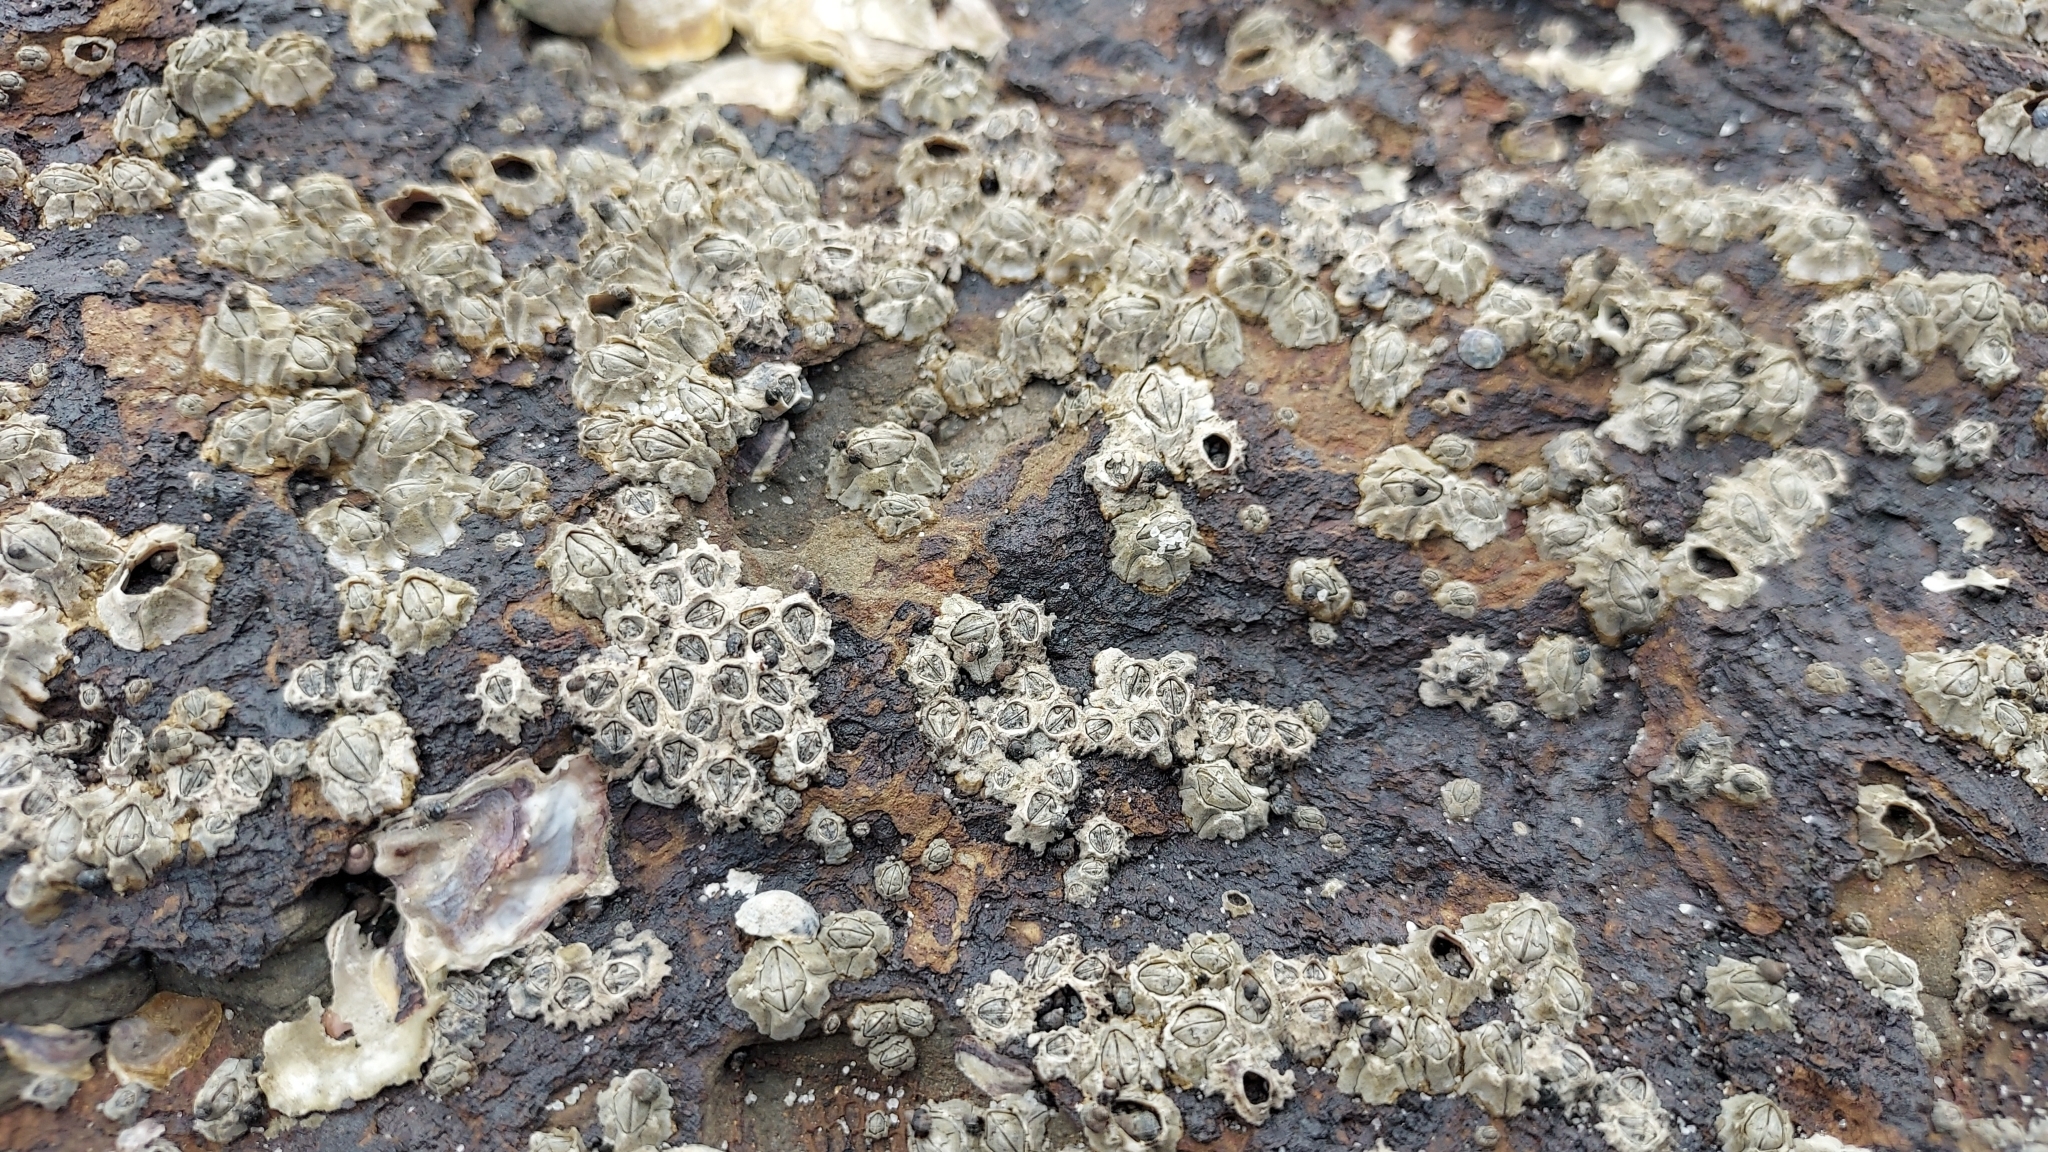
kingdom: Animalia
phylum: Arthropoda
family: Elminiidae
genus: Austrominius
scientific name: Austrominius modestus
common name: Australasian barnacle
